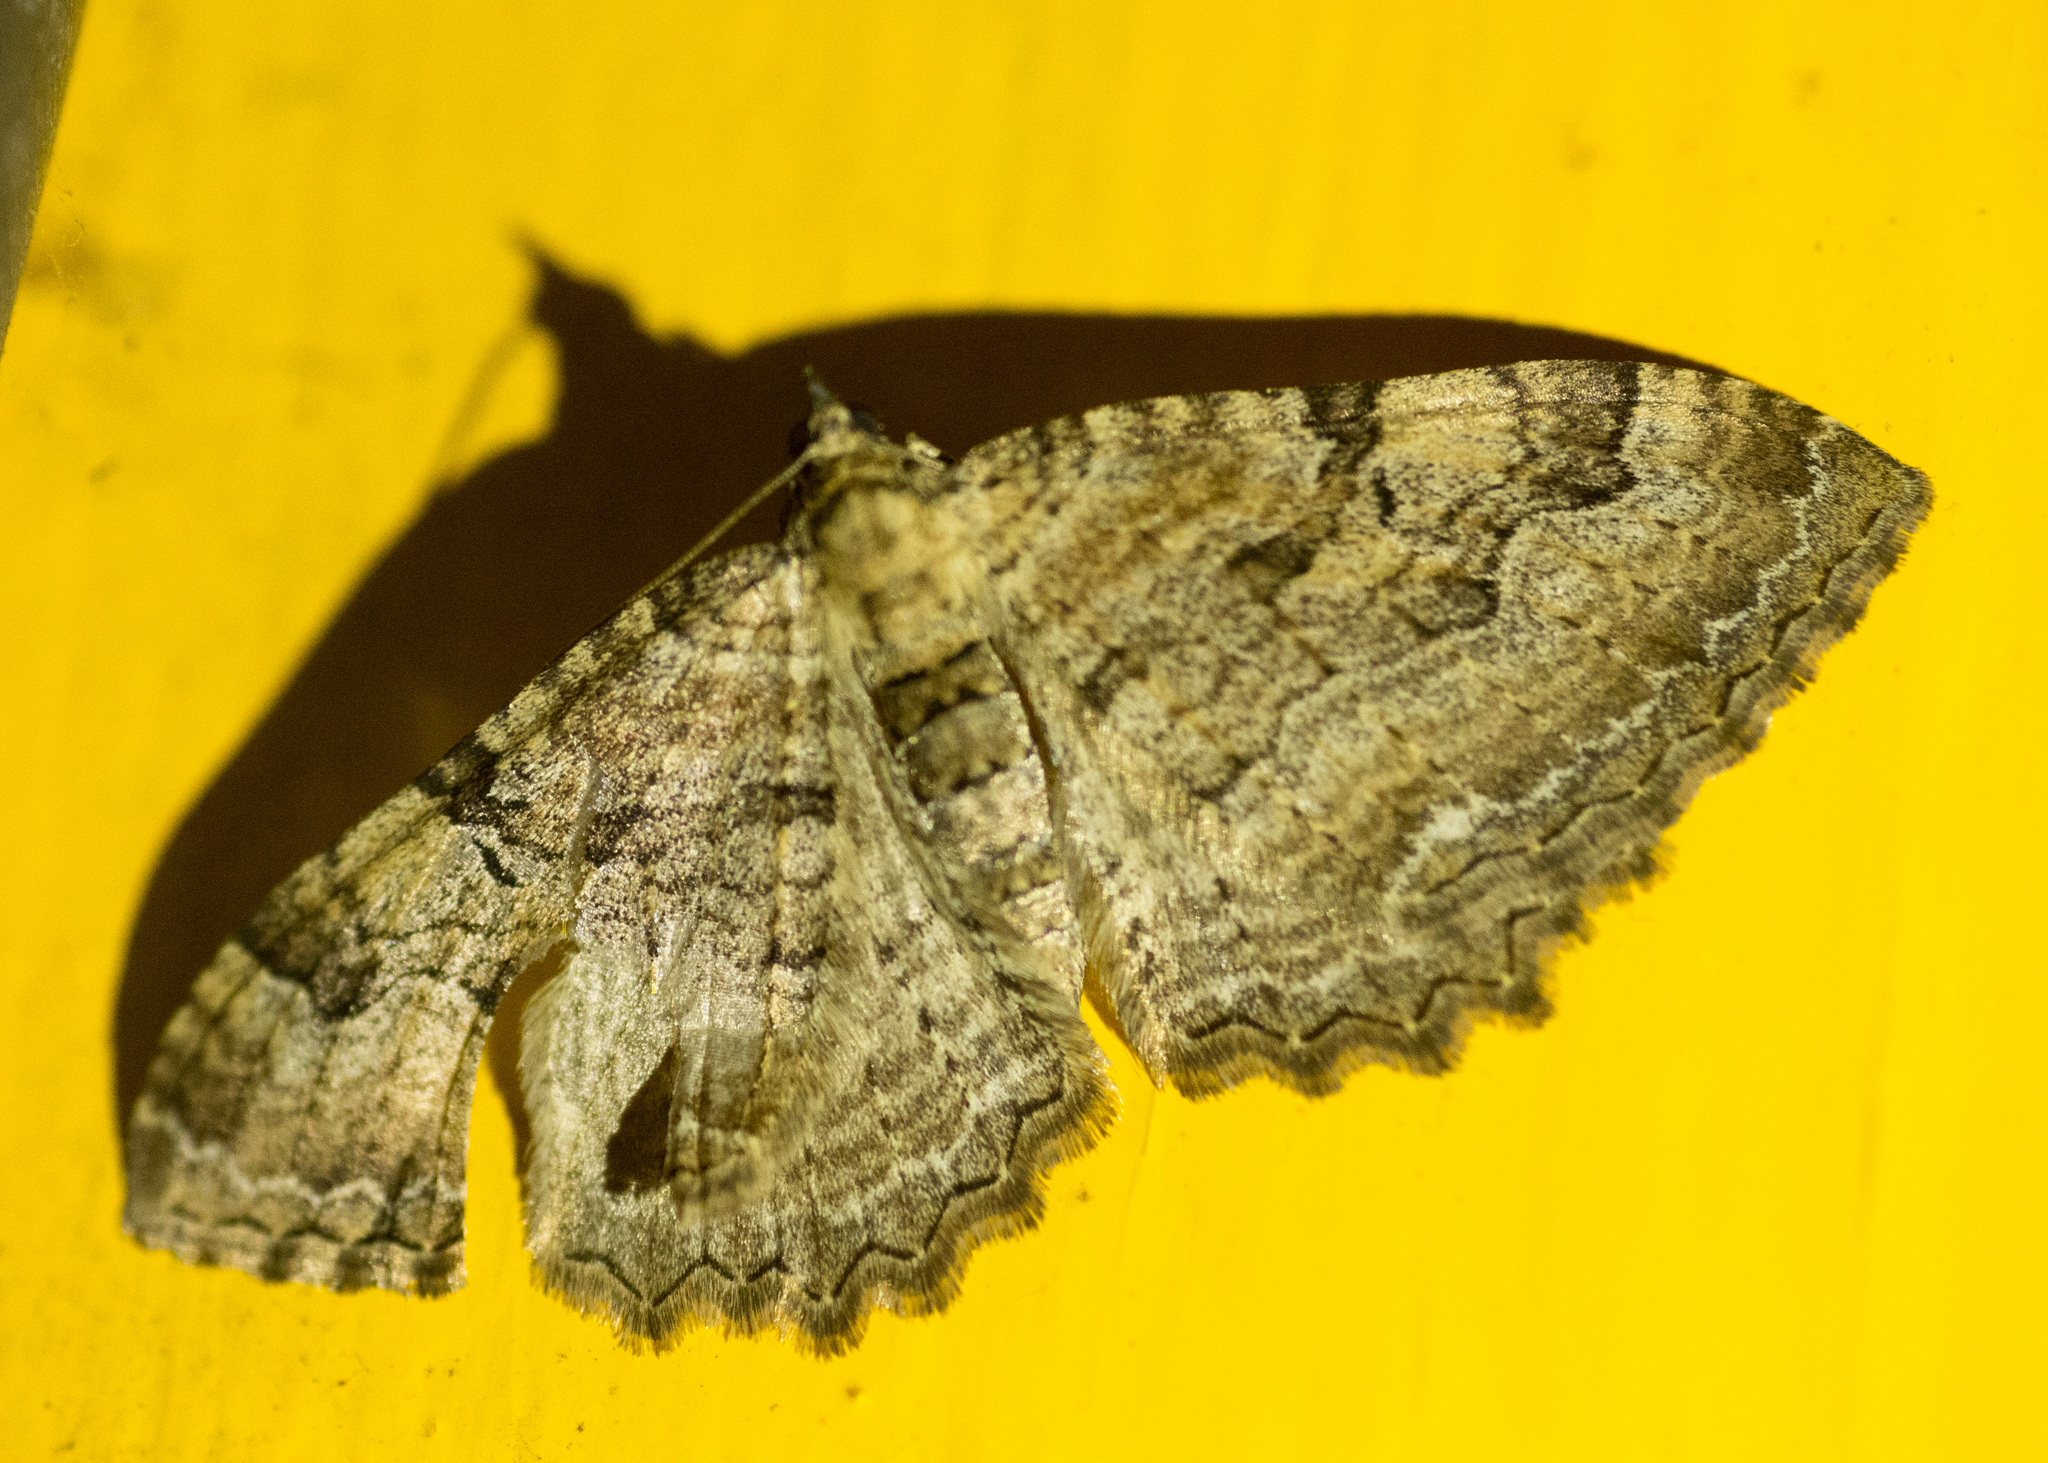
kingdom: Animalia
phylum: Arthropoda
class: Insecta
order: Lepidoptera
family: Geometridae
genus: Rheumaptera
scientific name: Rheumaptera Hydria cervinalis
